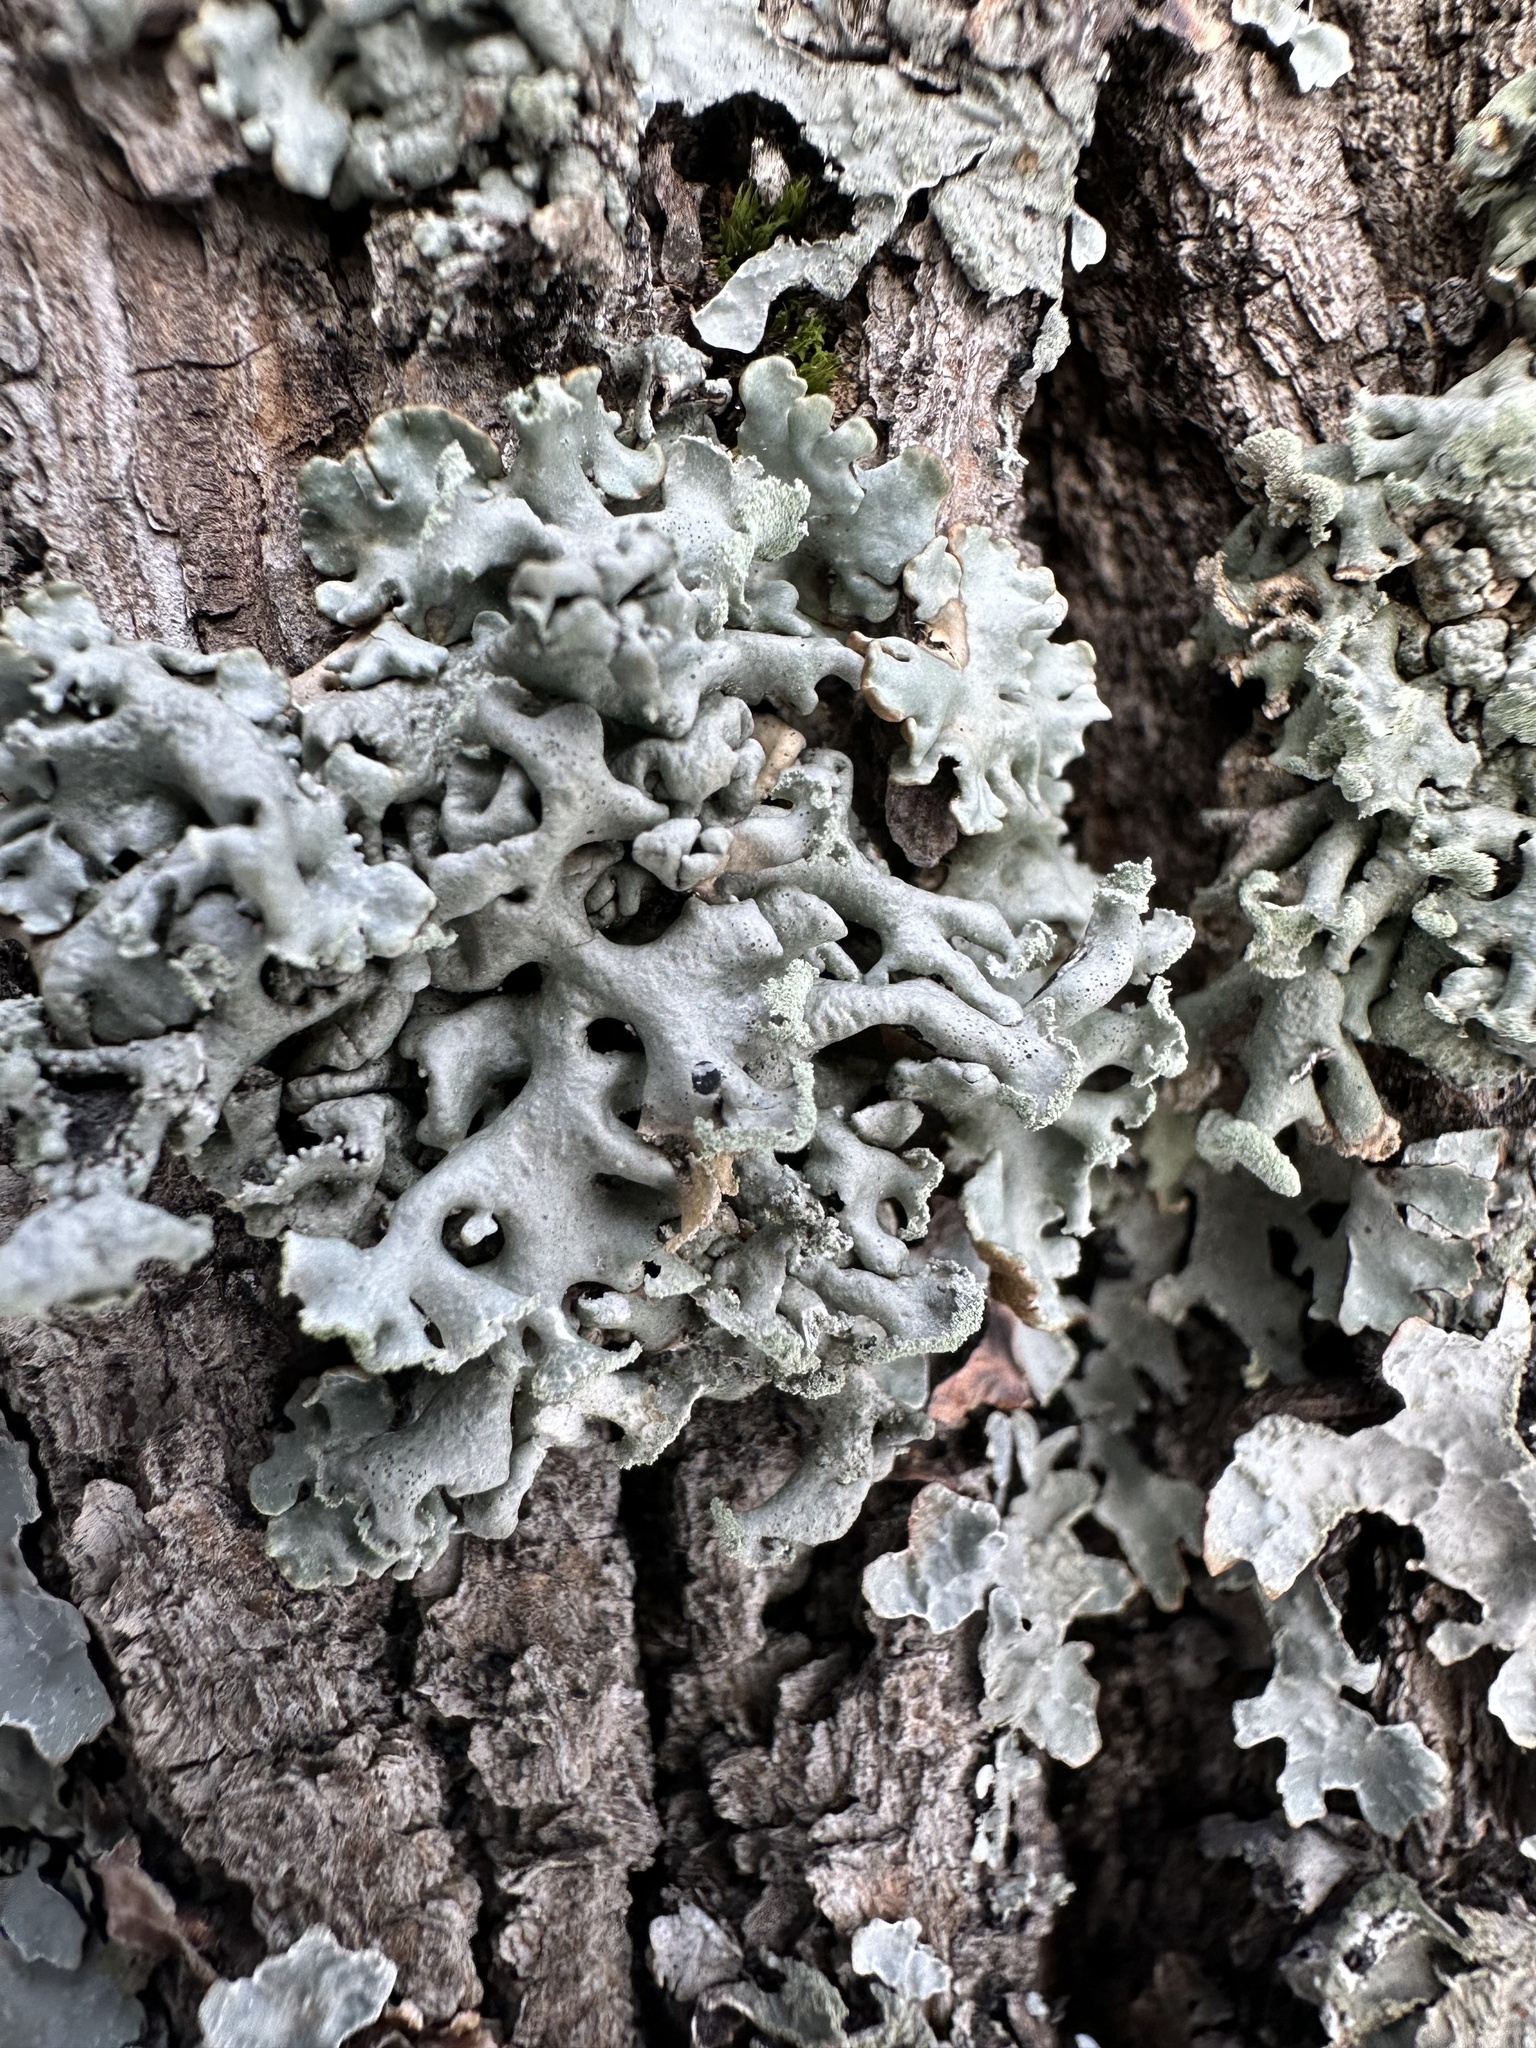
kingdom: Fungi
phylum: Ascomycota
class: Lecanoromycetes
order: Lecanorales
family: Parmeliaceae
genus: Hypogymnia
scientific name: Hypogymnia physodes
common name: Dark crottle
